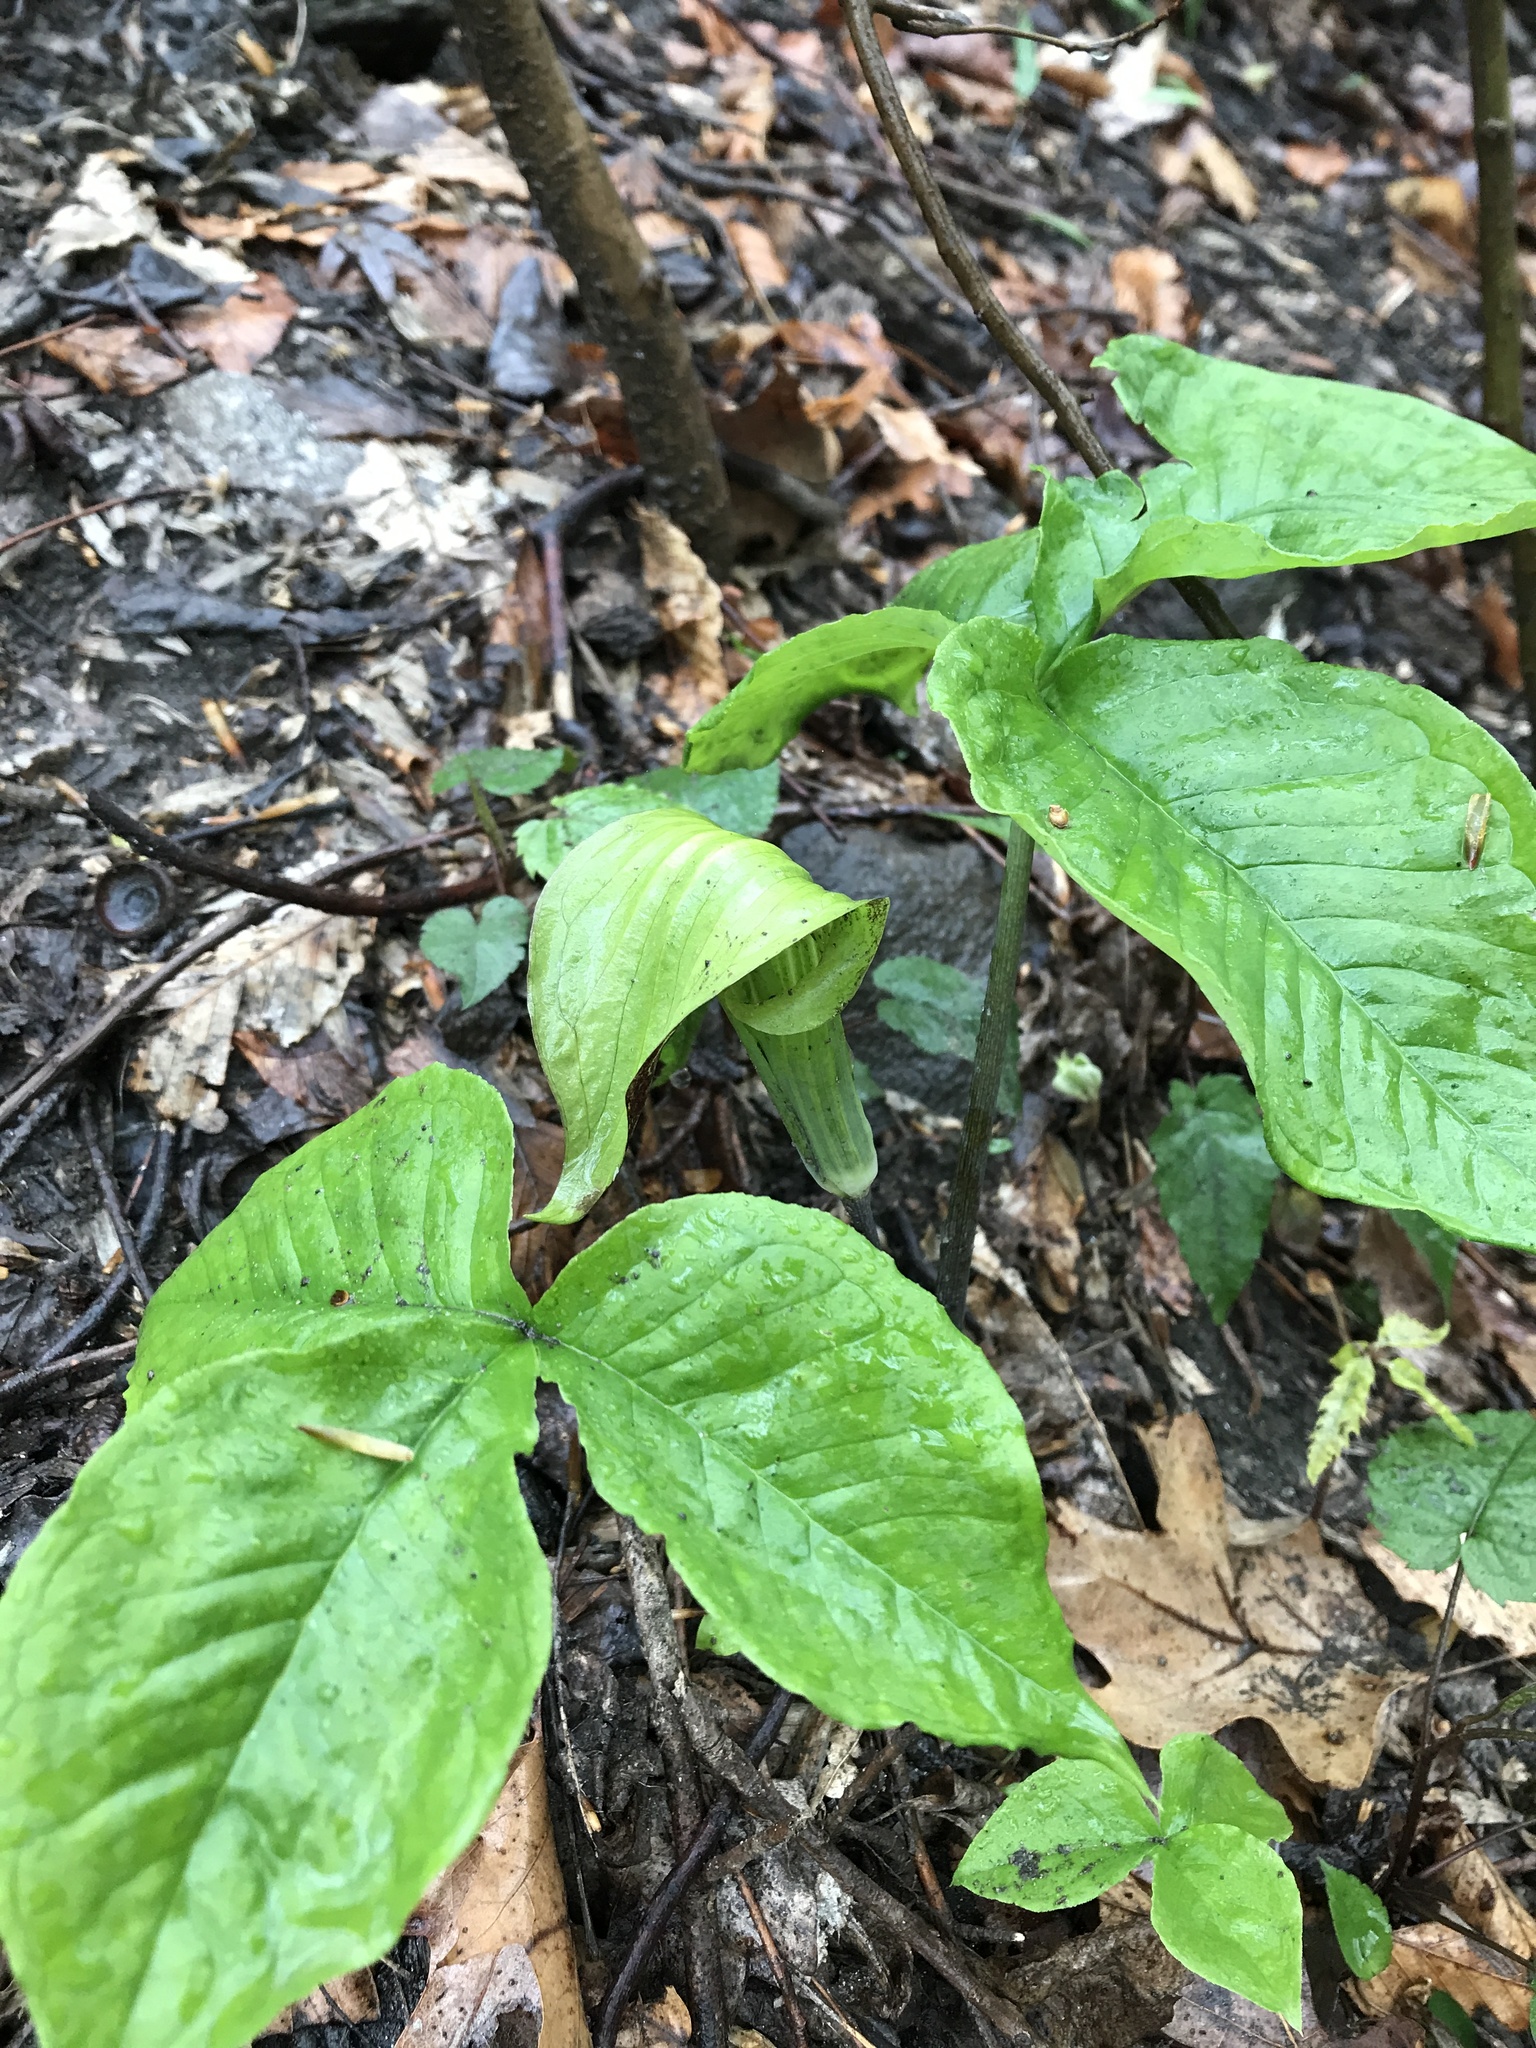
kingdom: Plantae
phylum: Tracheophyta
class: Liliopsida
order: Alismatales
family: Araceae
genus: Arisaema
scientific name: Arisaema triphyllum
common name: Jack-in-the-pulpit
